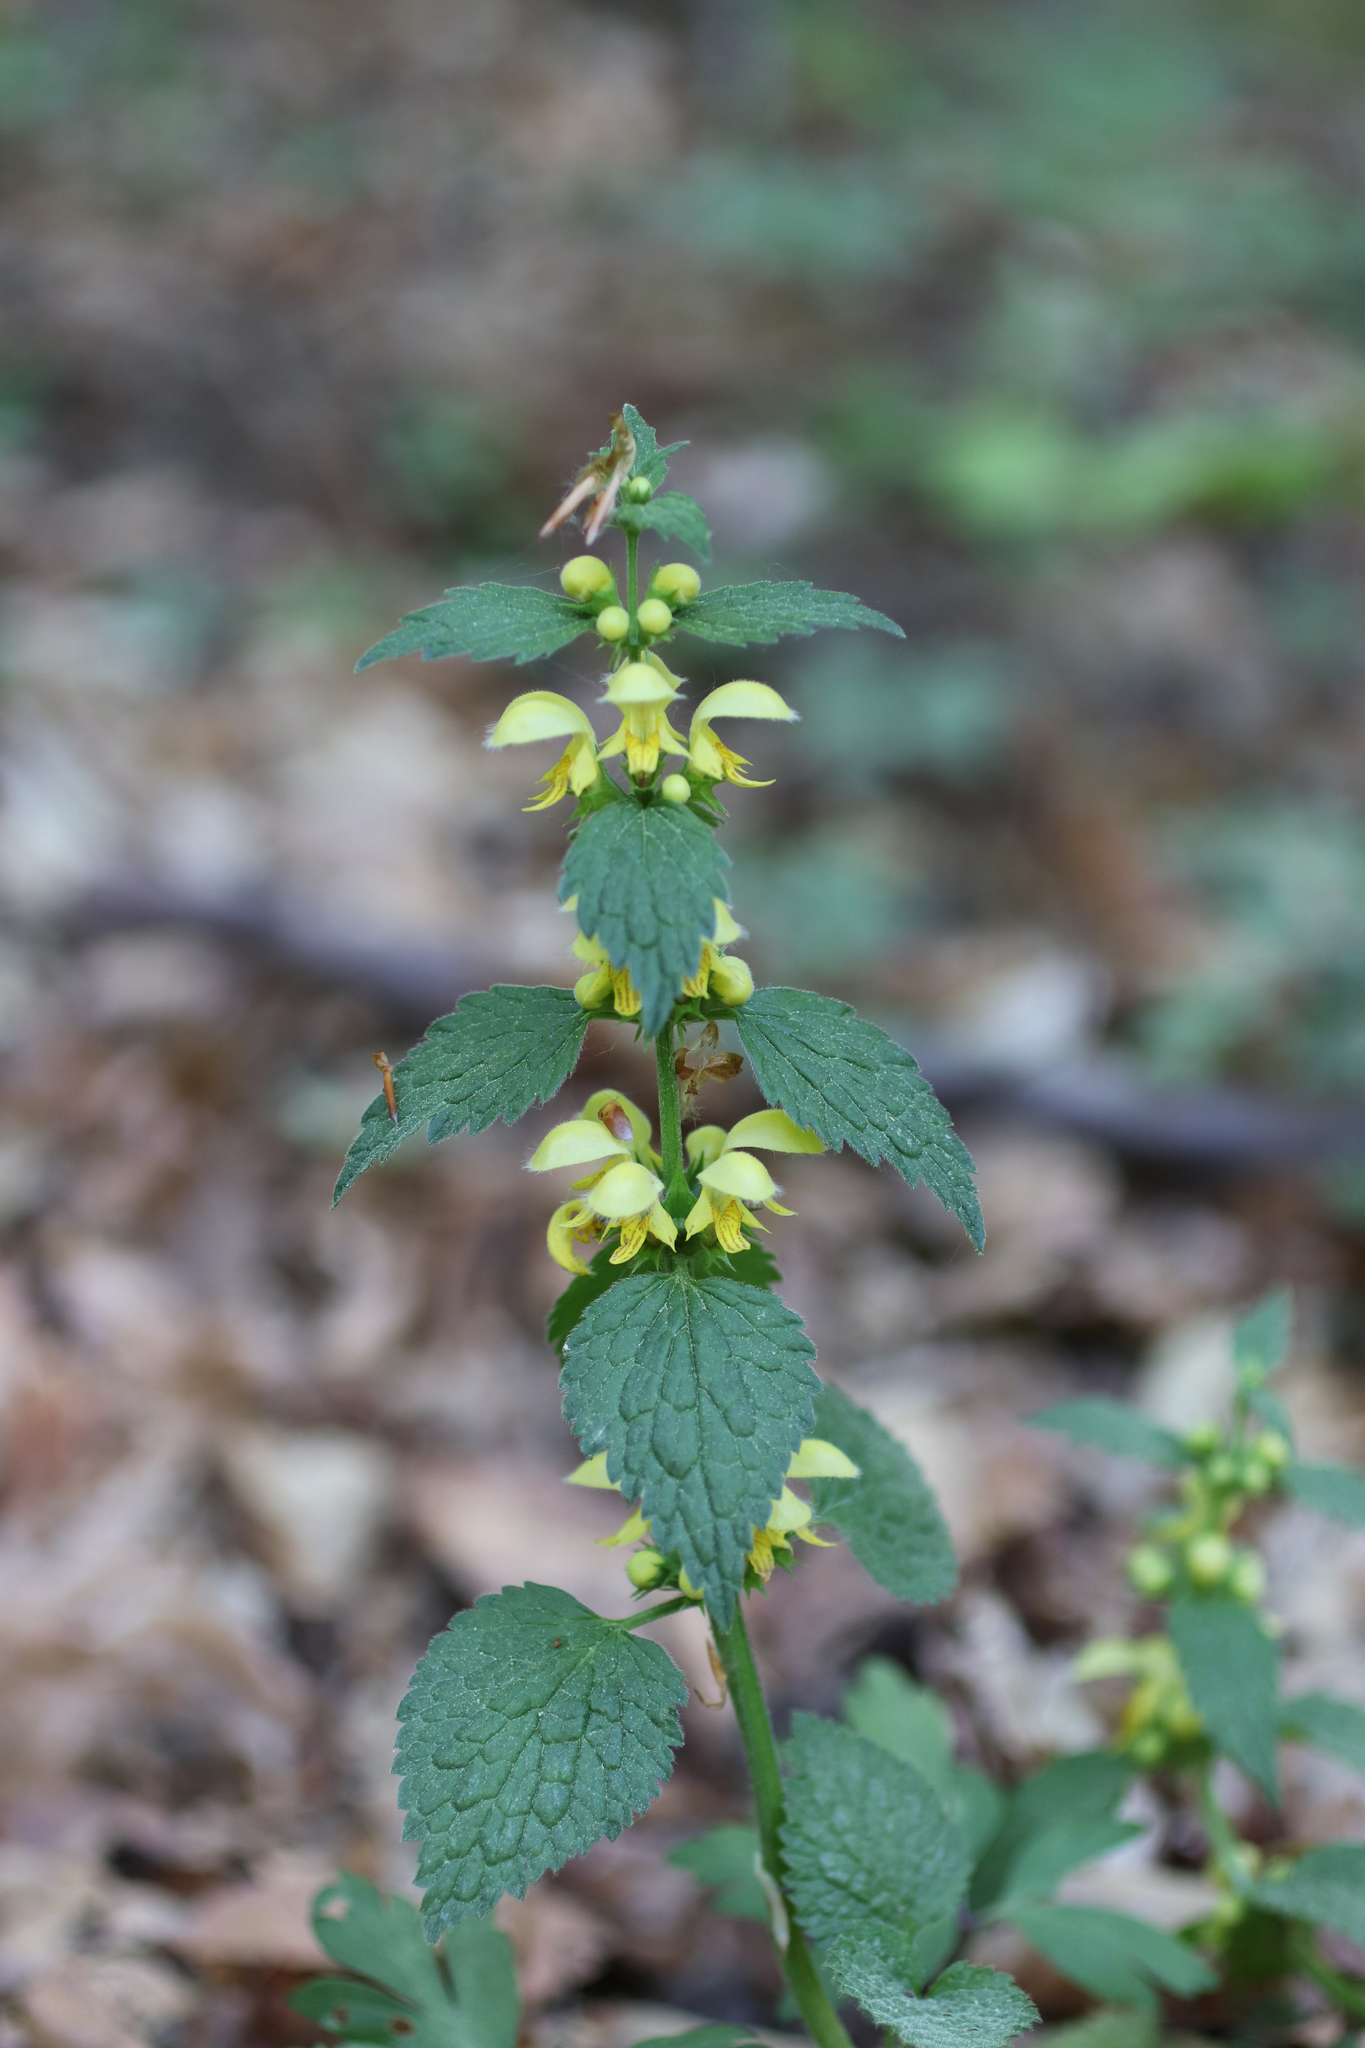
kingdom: Plantae
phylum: Tracheophyta
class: Magnoliopsida
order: Lamiales
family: Lamiaceae
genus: Lamium
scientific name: Lamium galeobdolon
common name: Yellow archangel
